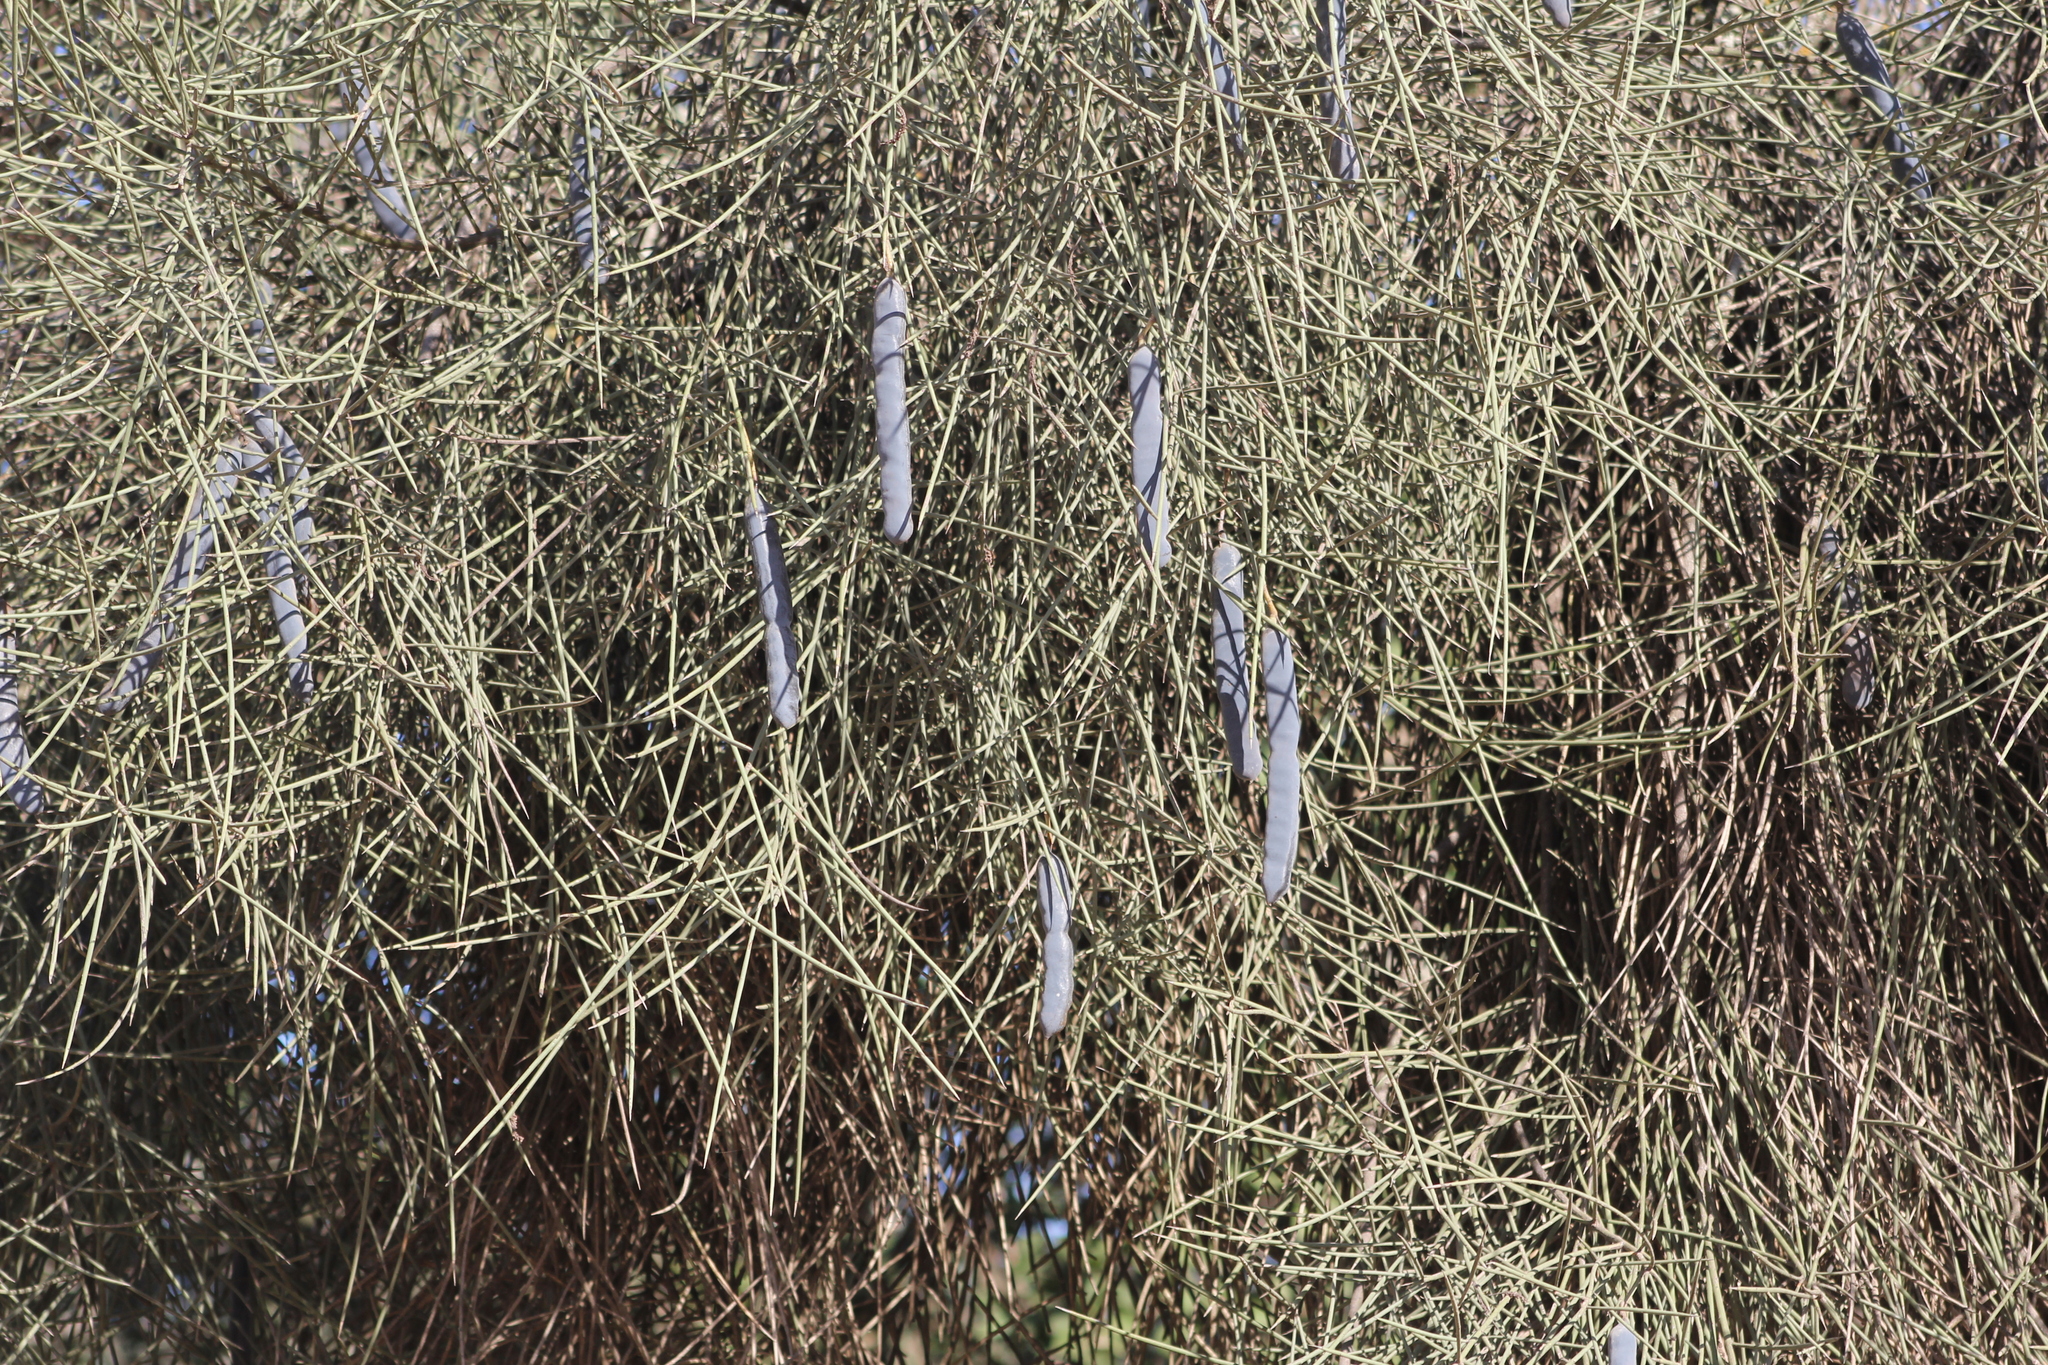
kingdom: Plantae
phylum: Tracheophyta
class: Magnoliopsida
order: Fabales
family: Fabaceae
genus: Prosopis
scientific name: Prosopis kuntzei
